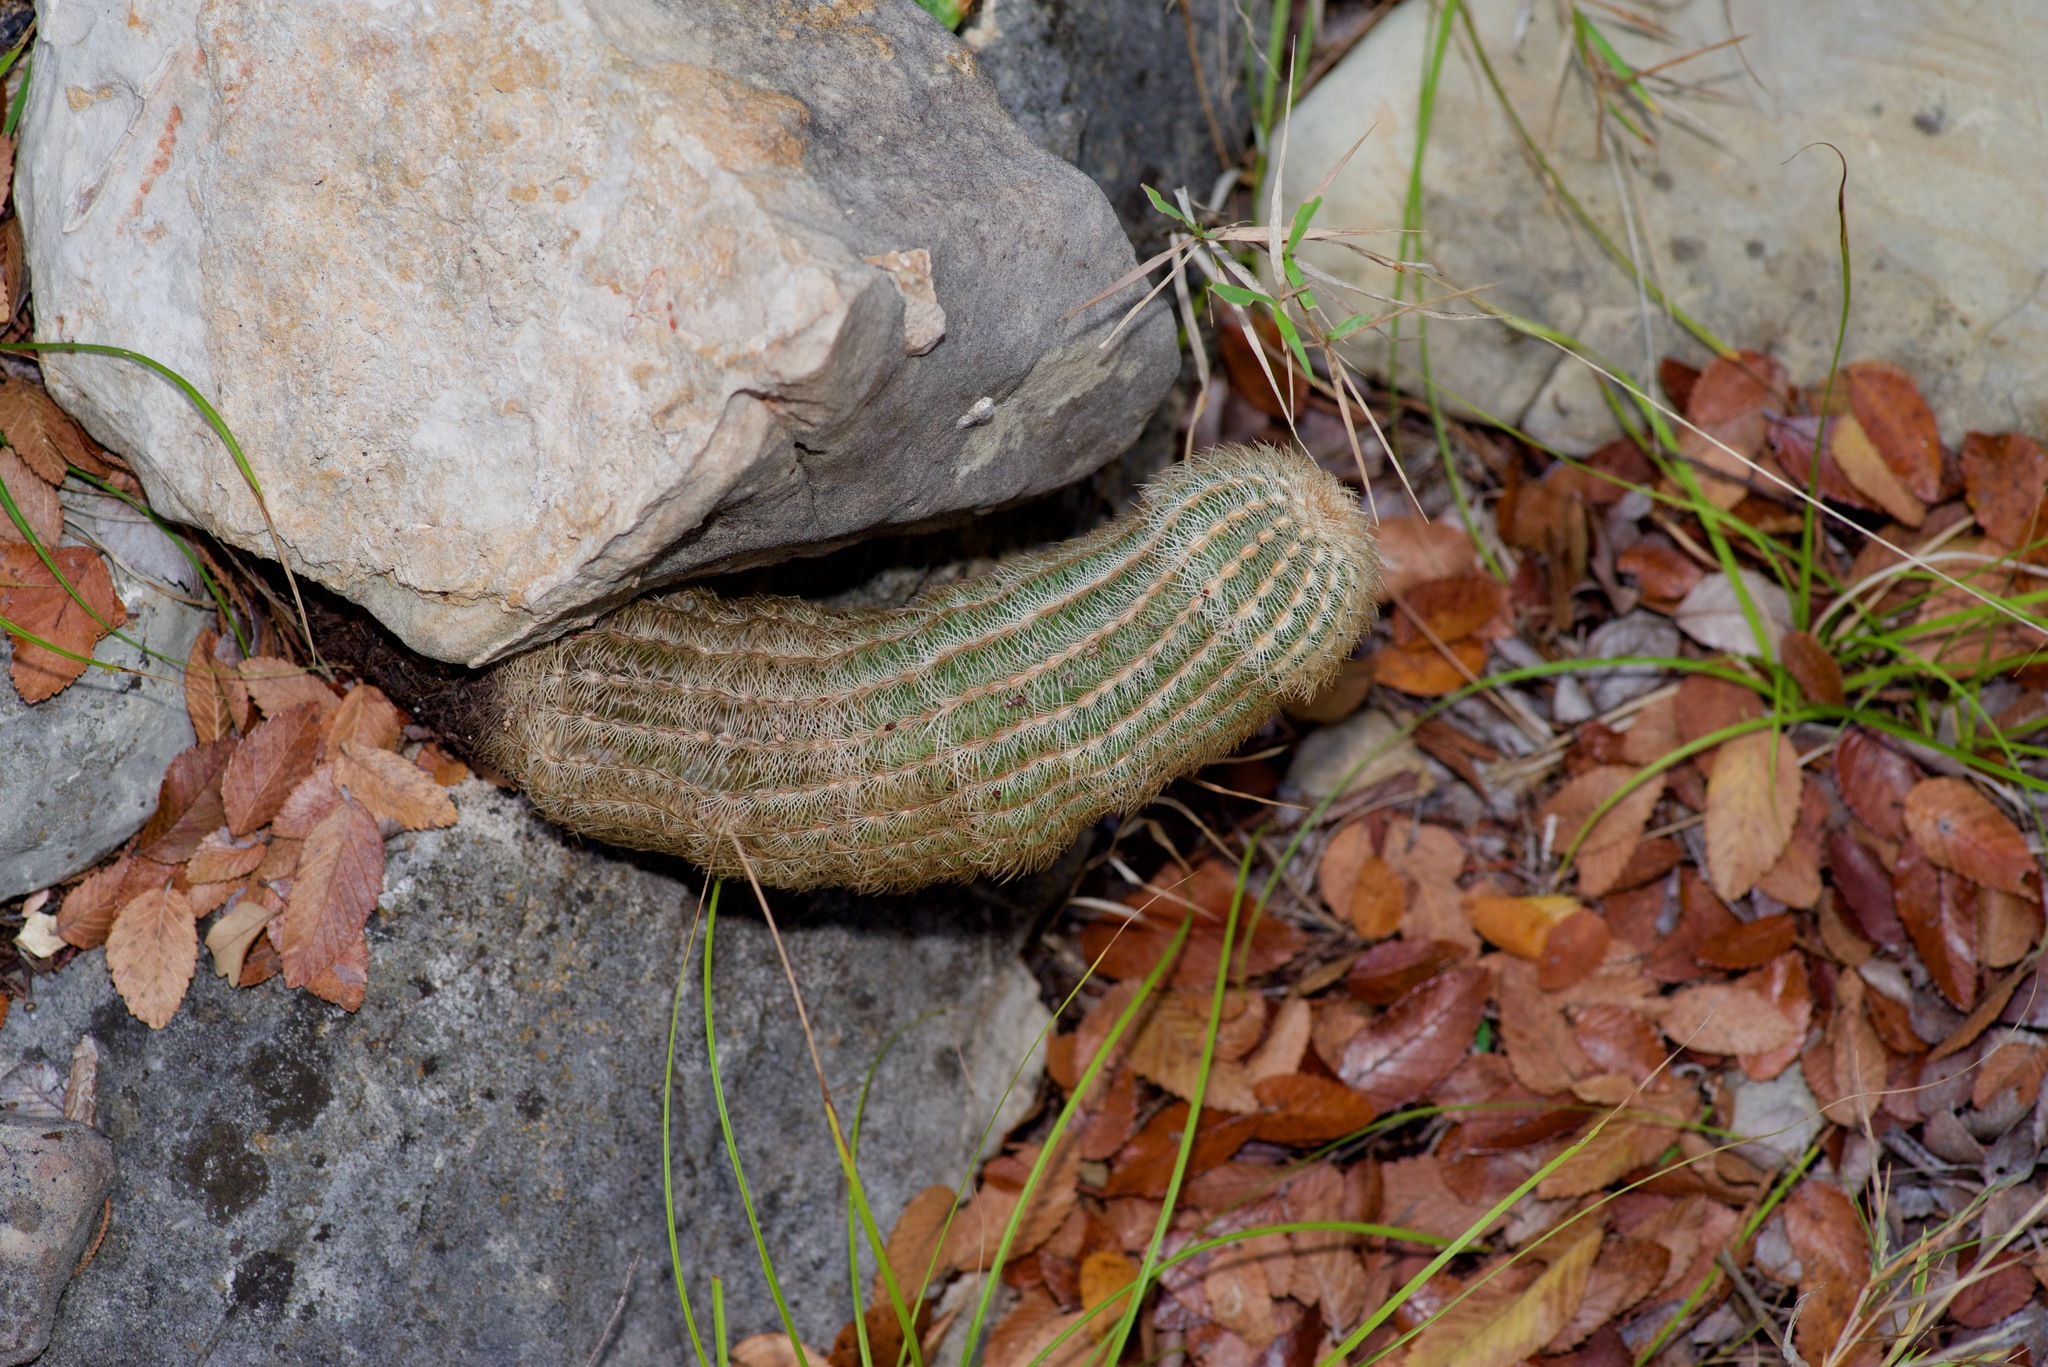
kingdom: Plantae
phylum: Tracheophyta
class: Magnoliopsida
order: Caryophyllales
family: Cactaceae
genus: Echinocereus
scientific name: Echinocereus reichenbachii
